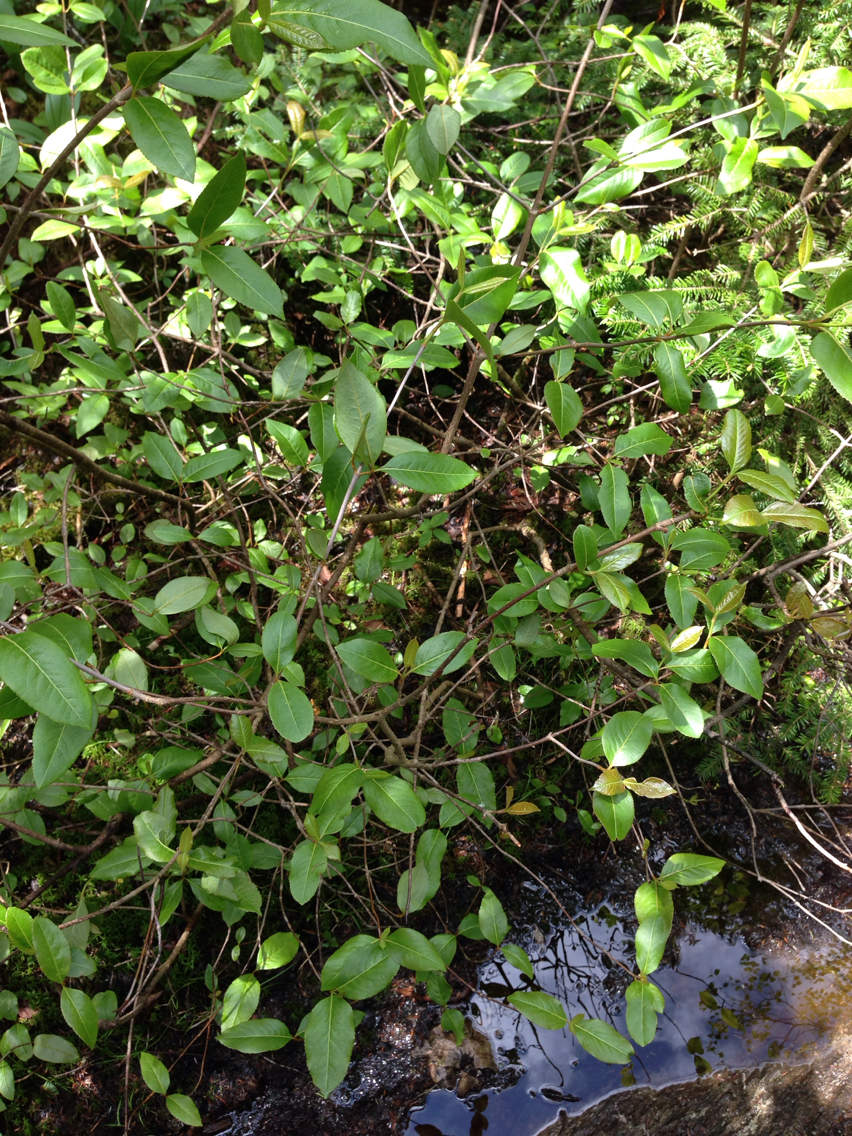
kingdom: Plantae
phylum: Tracheophyta
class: Magnoliopsida
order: Dipsacales
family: Viburnaceae
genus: Viburnum
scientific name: Viburnum cassinoides
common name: Swamp haw
